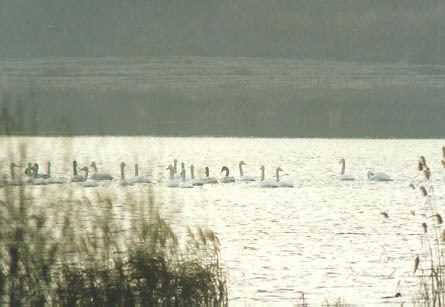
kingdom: Animalia
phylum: Chordata
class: Aves
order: Anseriformes
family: Anatidae
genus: Cygnus
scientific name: Cygnus cygnus
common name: Whooper swan
